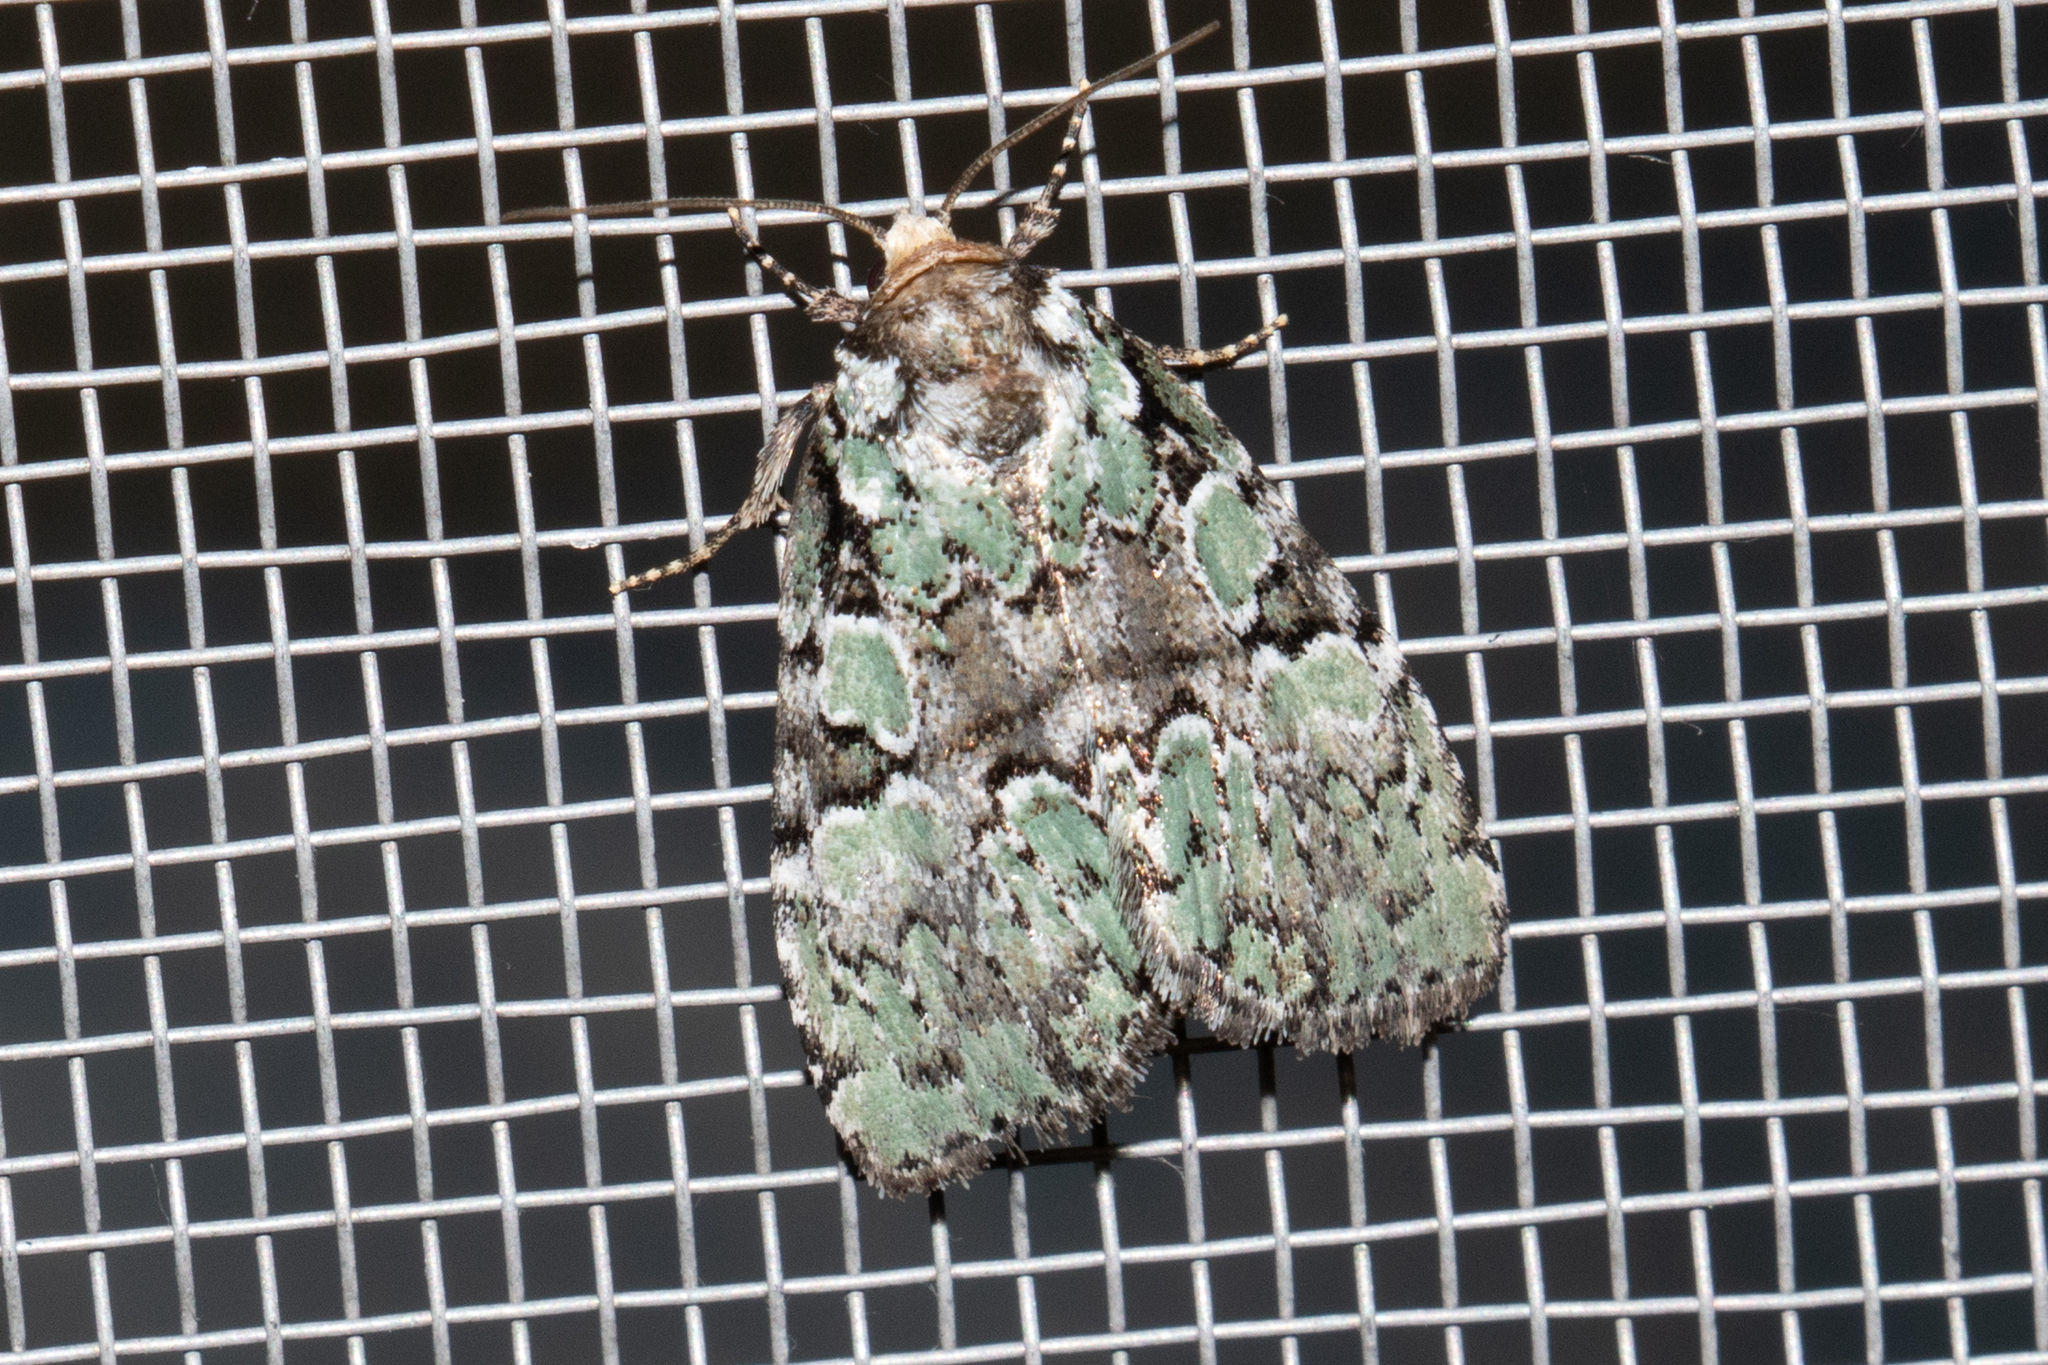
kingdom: Animalia
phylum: Arthropoda
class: Insecta
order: Lepidoptera
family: Noctuidae
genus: Leuconycta
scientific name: Leuconycta lepidula
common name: Marbled-green leuconycta moth
